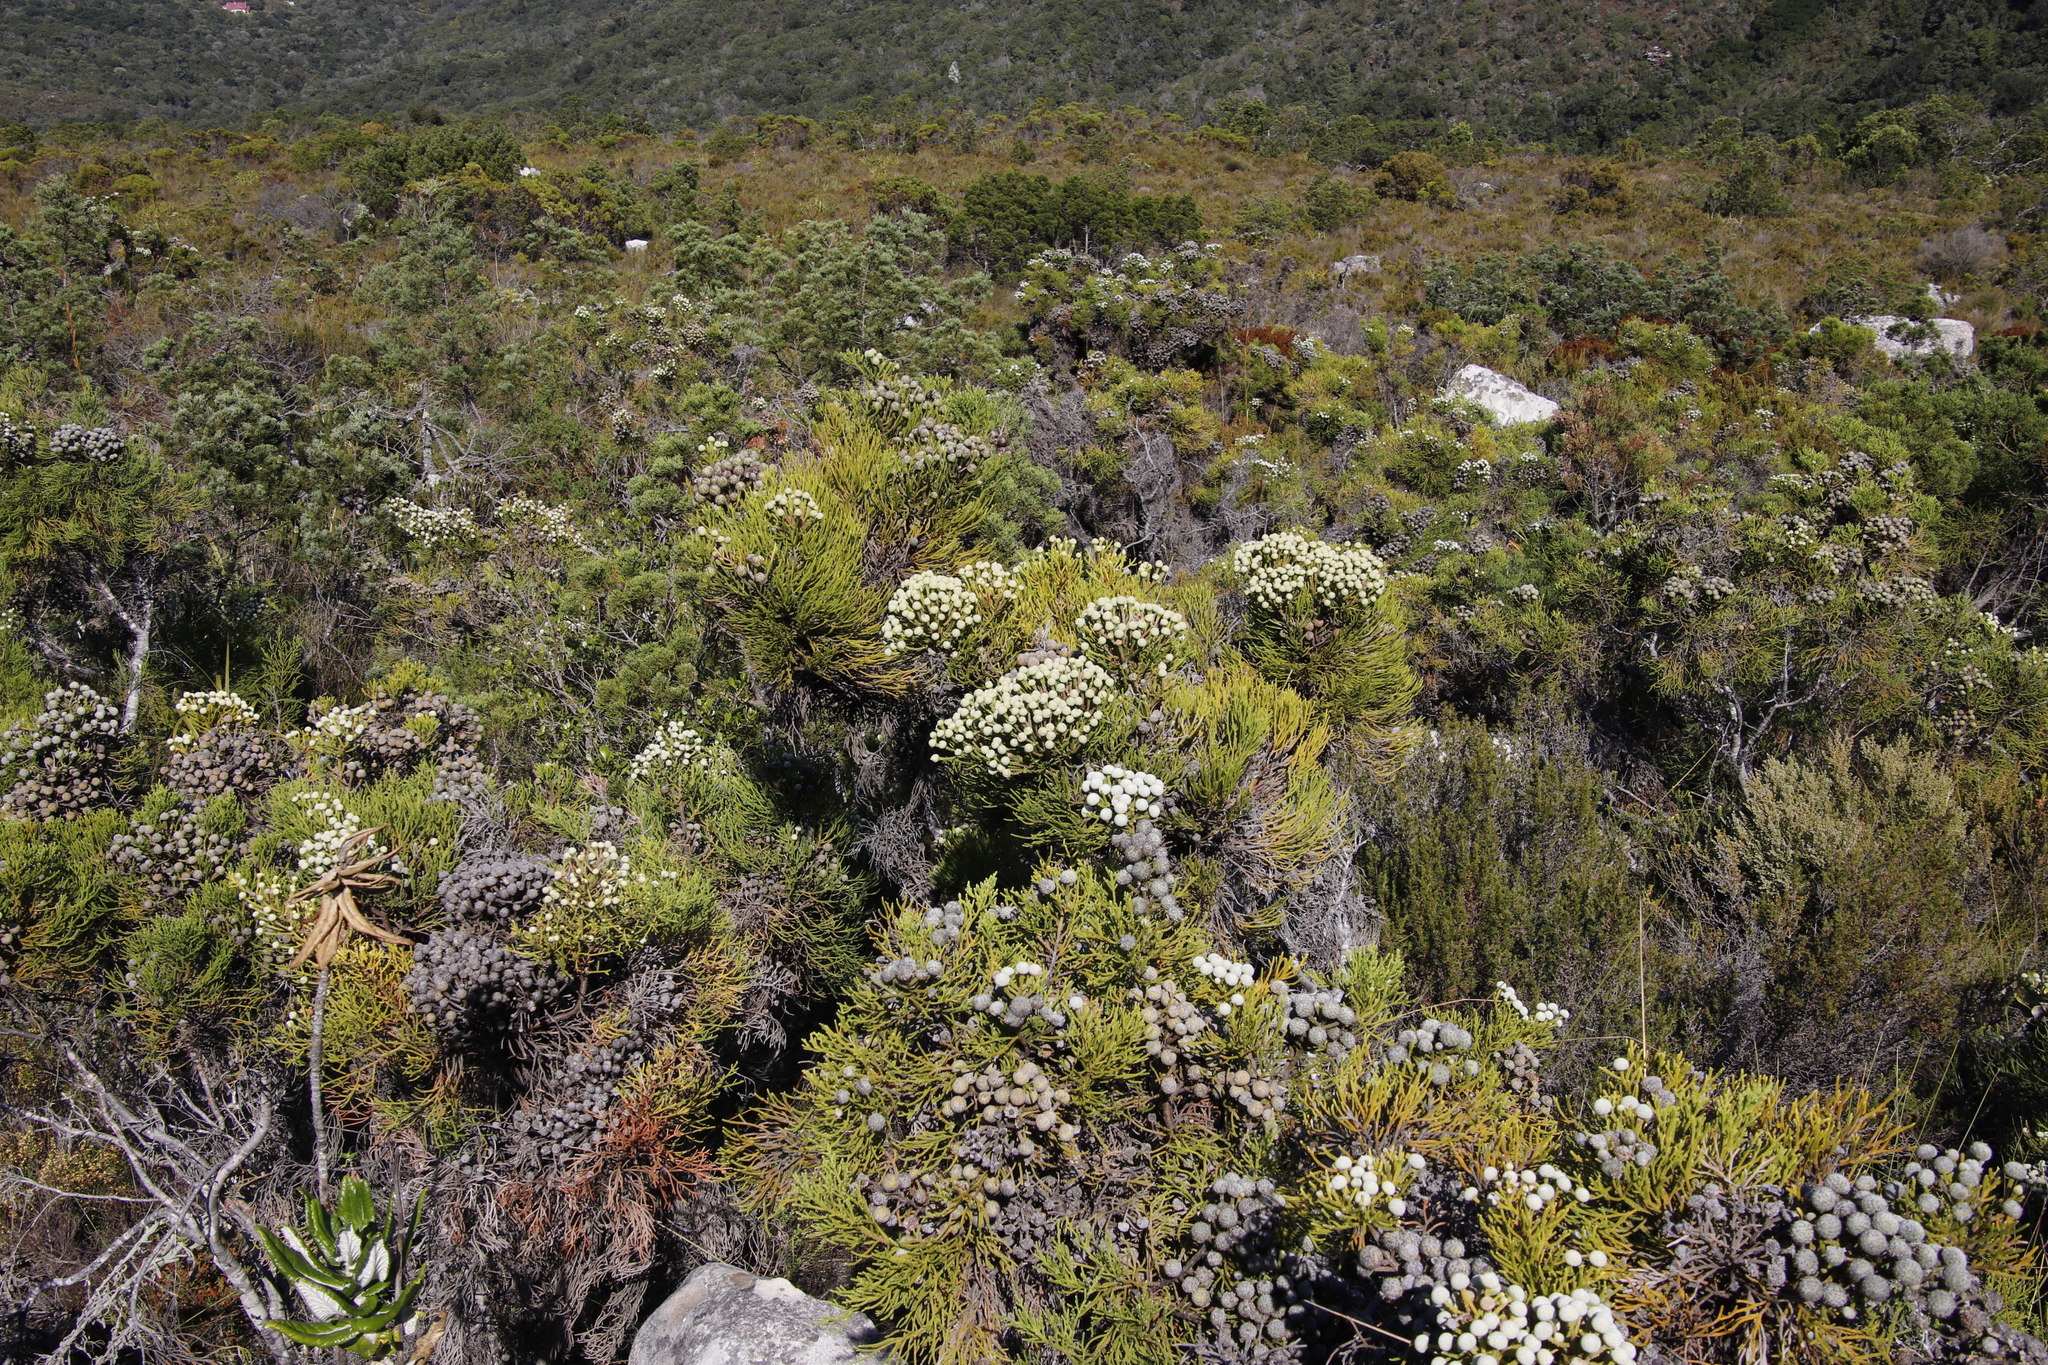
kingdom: Plantae
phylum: Tracheophyta
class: Magnoliopsida
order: Bruniales
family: Bruniaceae
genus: Brunia
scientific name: Brunia noduliflora
